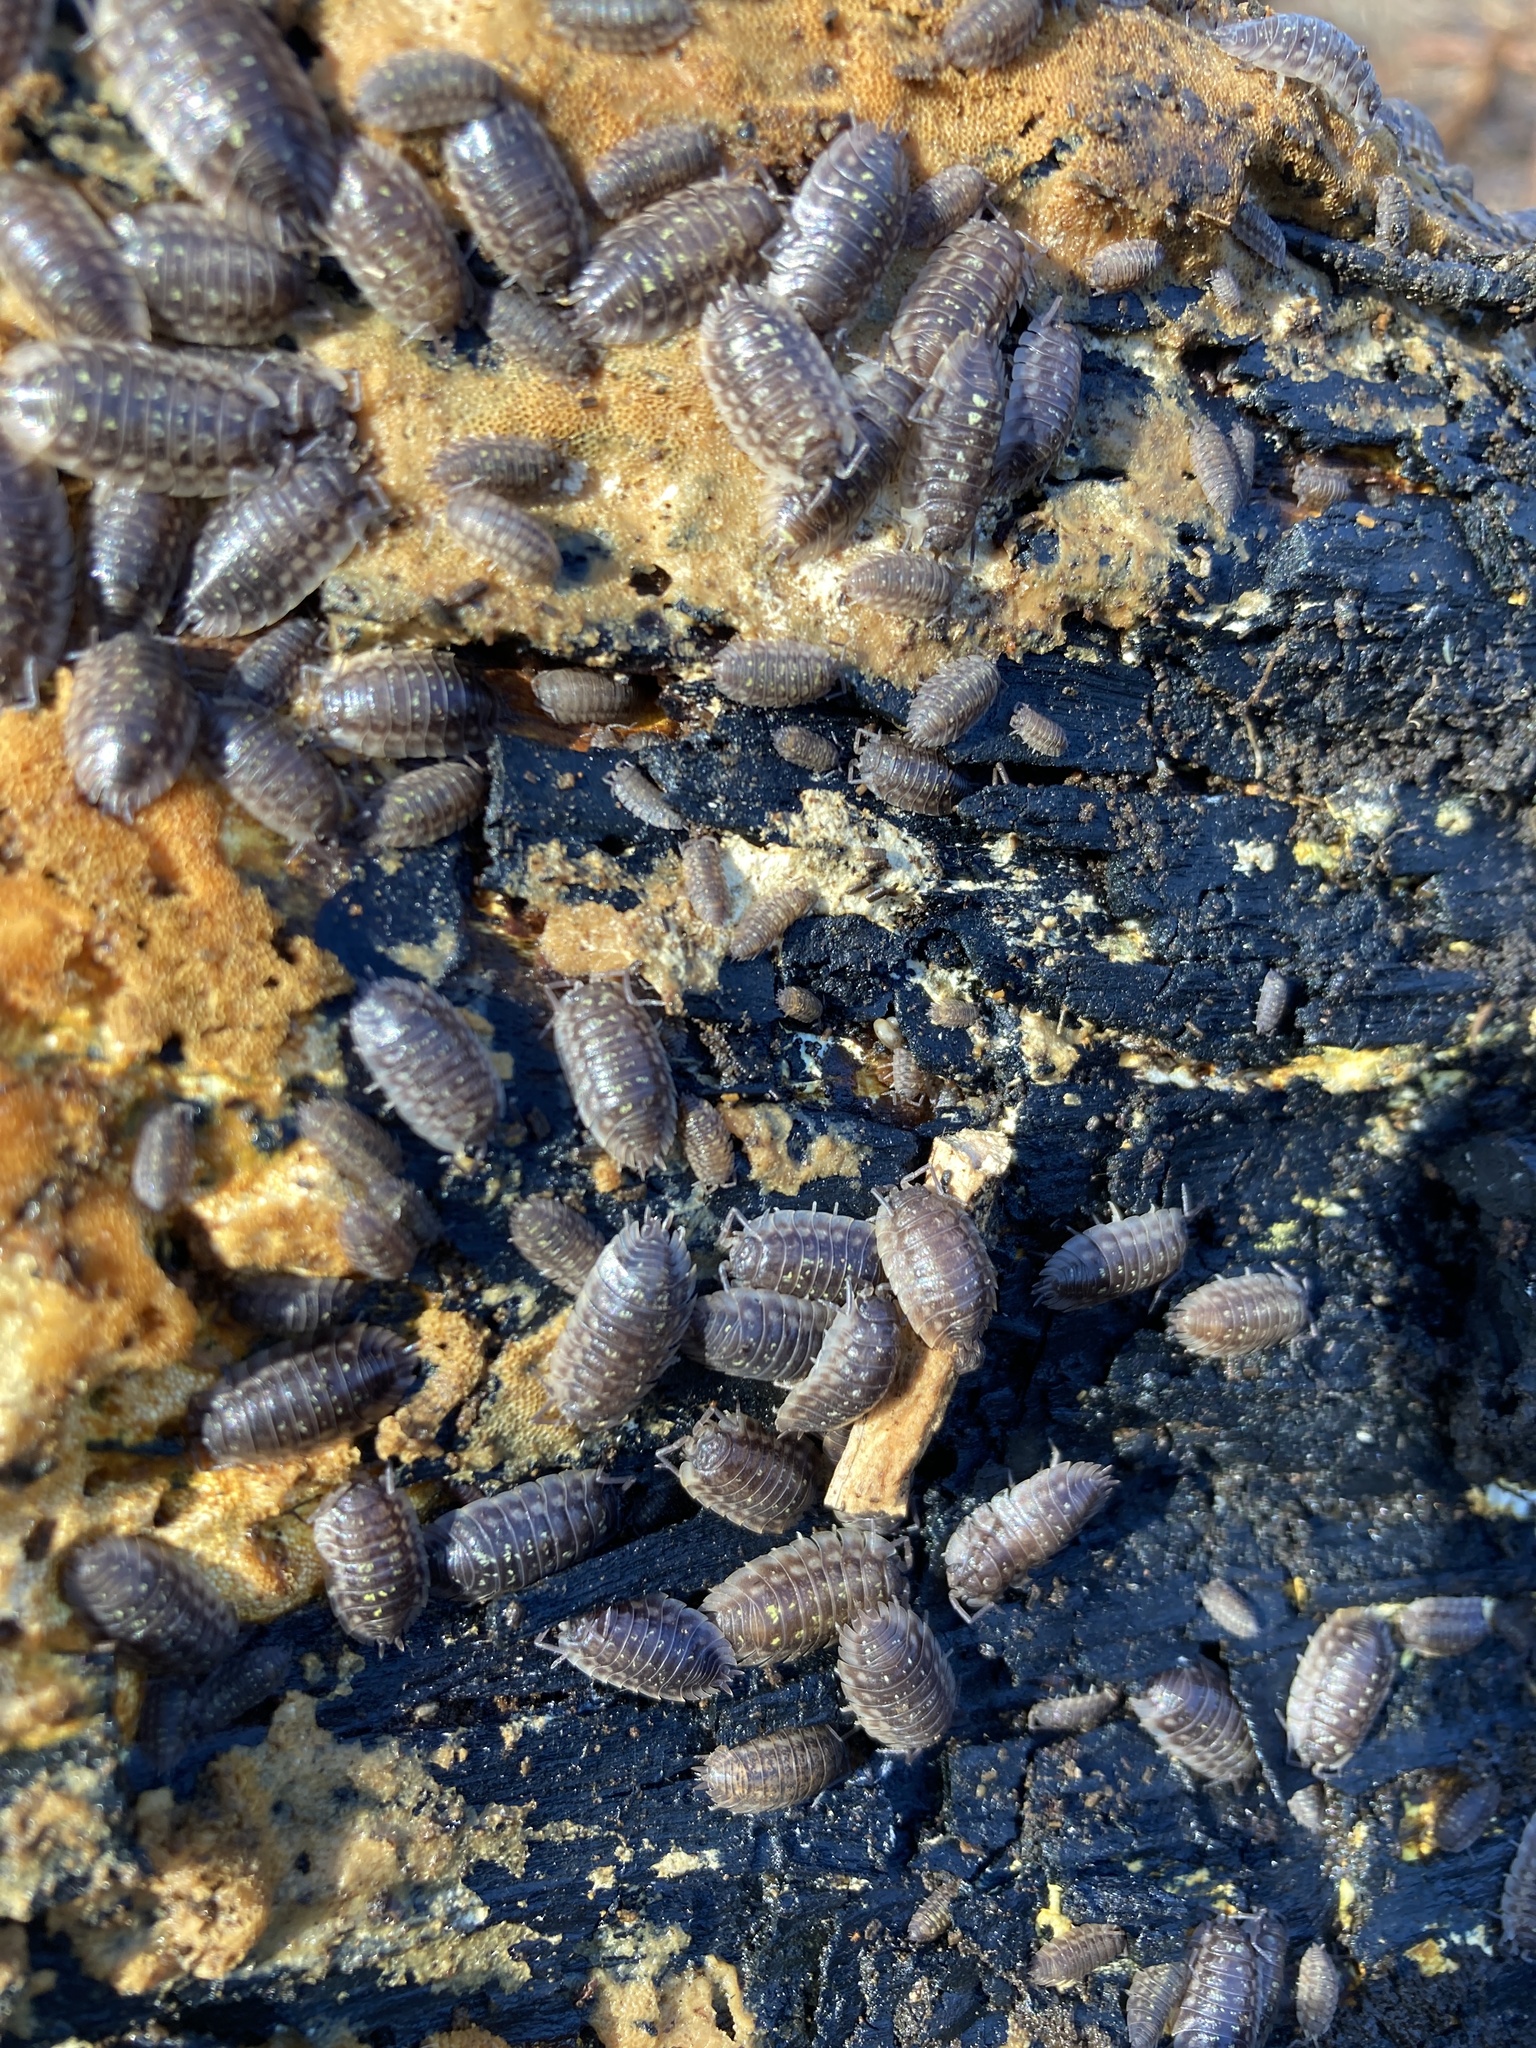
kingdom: Animalia
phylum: Arthropoda
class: Malacostraca
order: Isopoda
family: Oniscidae
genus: Oniscus
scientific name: Oniscus asellus
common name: Common shiny woodlouse
